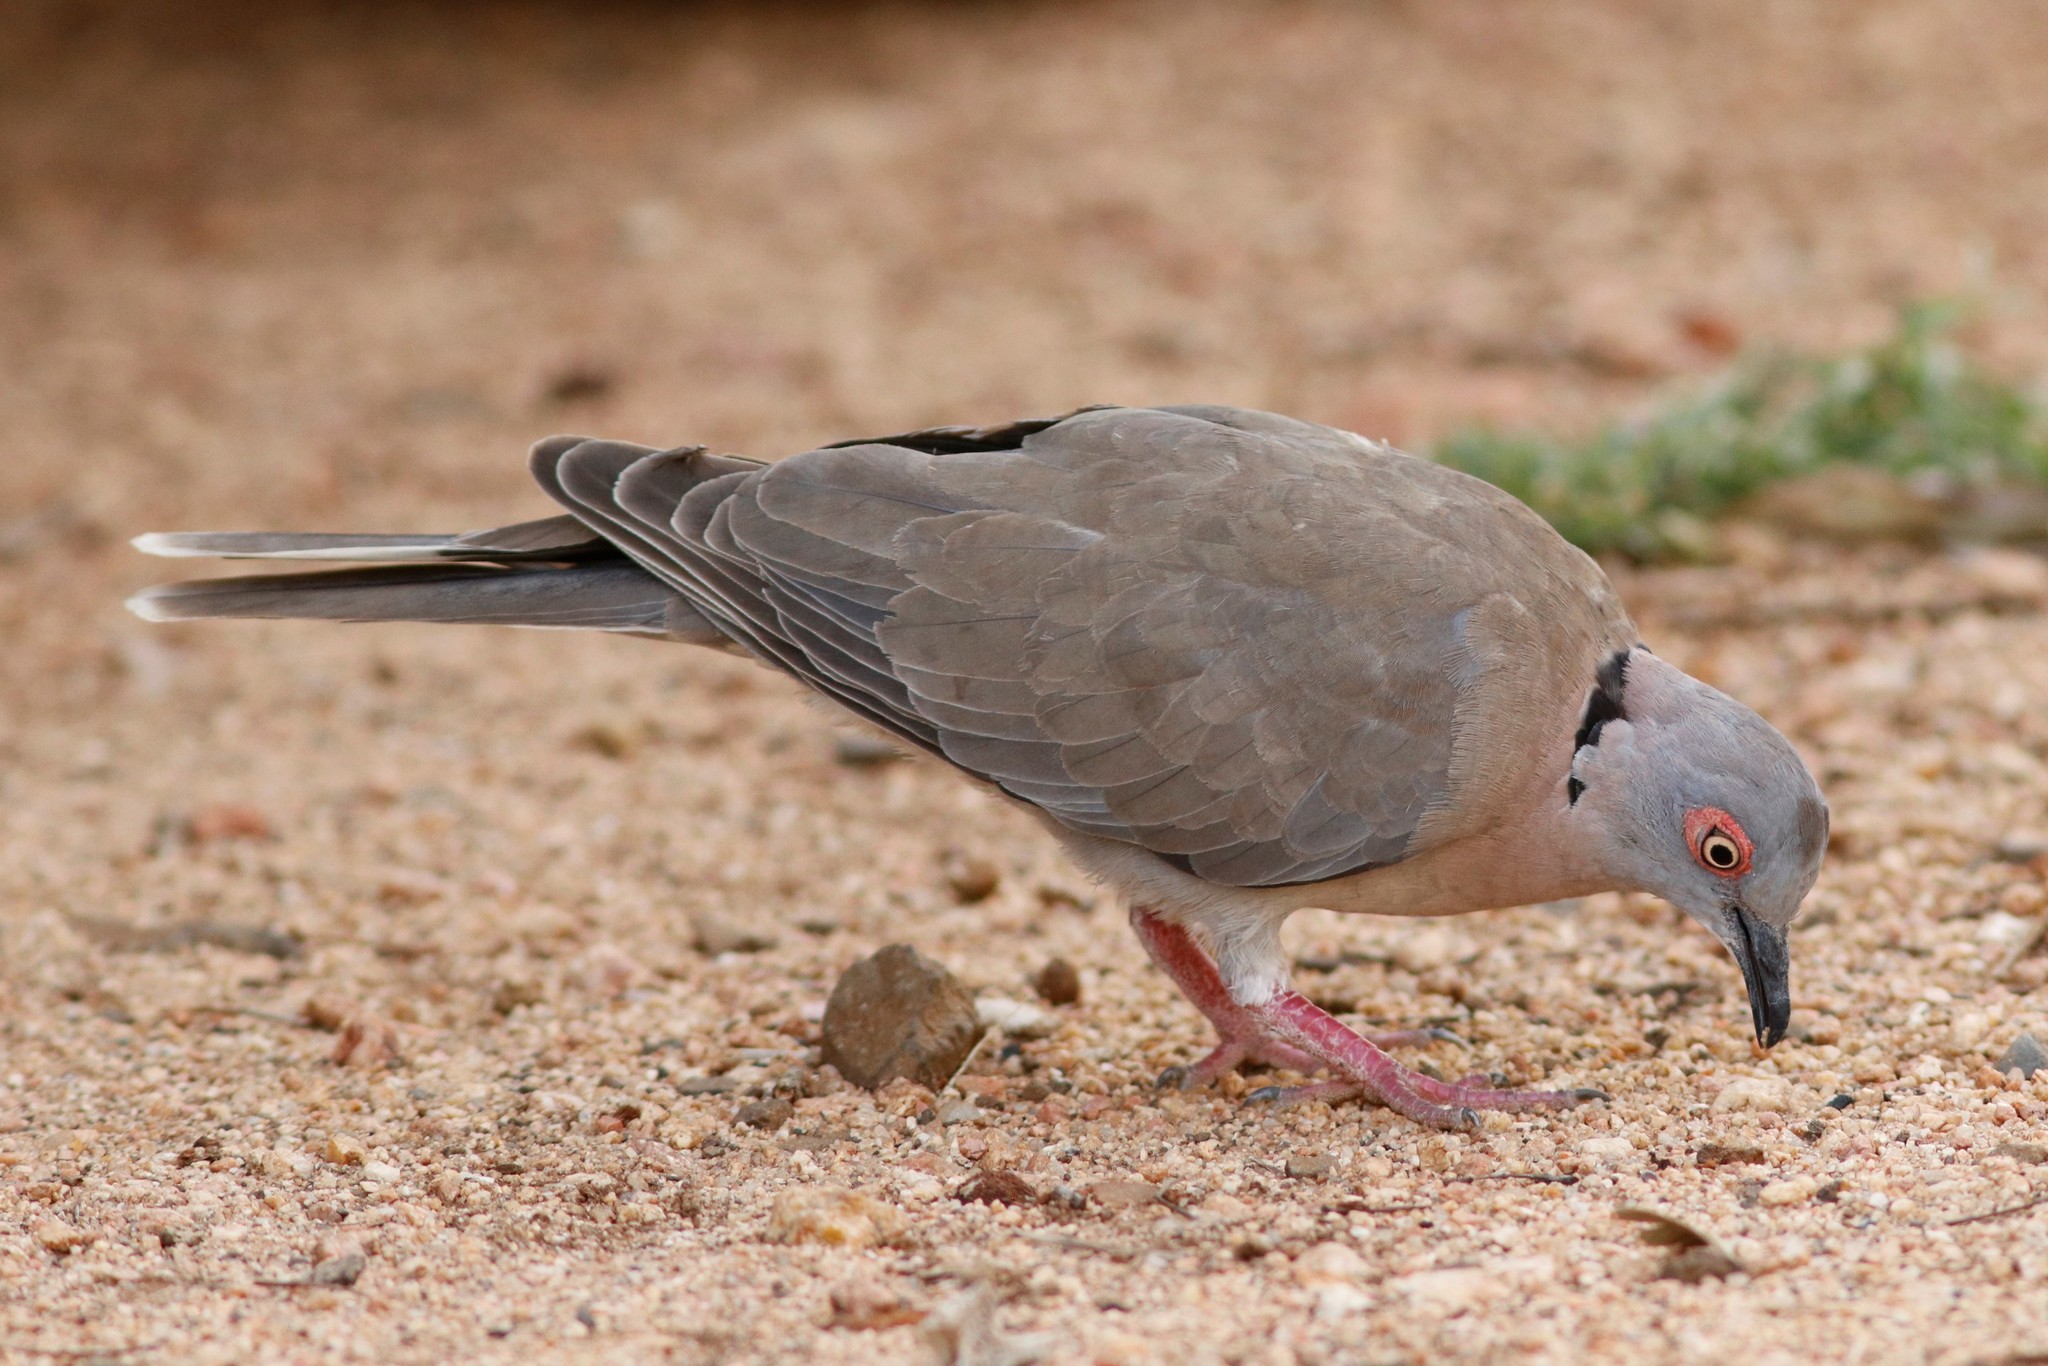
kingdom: Animalia
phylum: Chordata
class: Aves
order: Columbiformes
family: Columbidae
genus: Streptopelia
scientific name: Streptopelia decipiens
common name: Mourning collared dove
